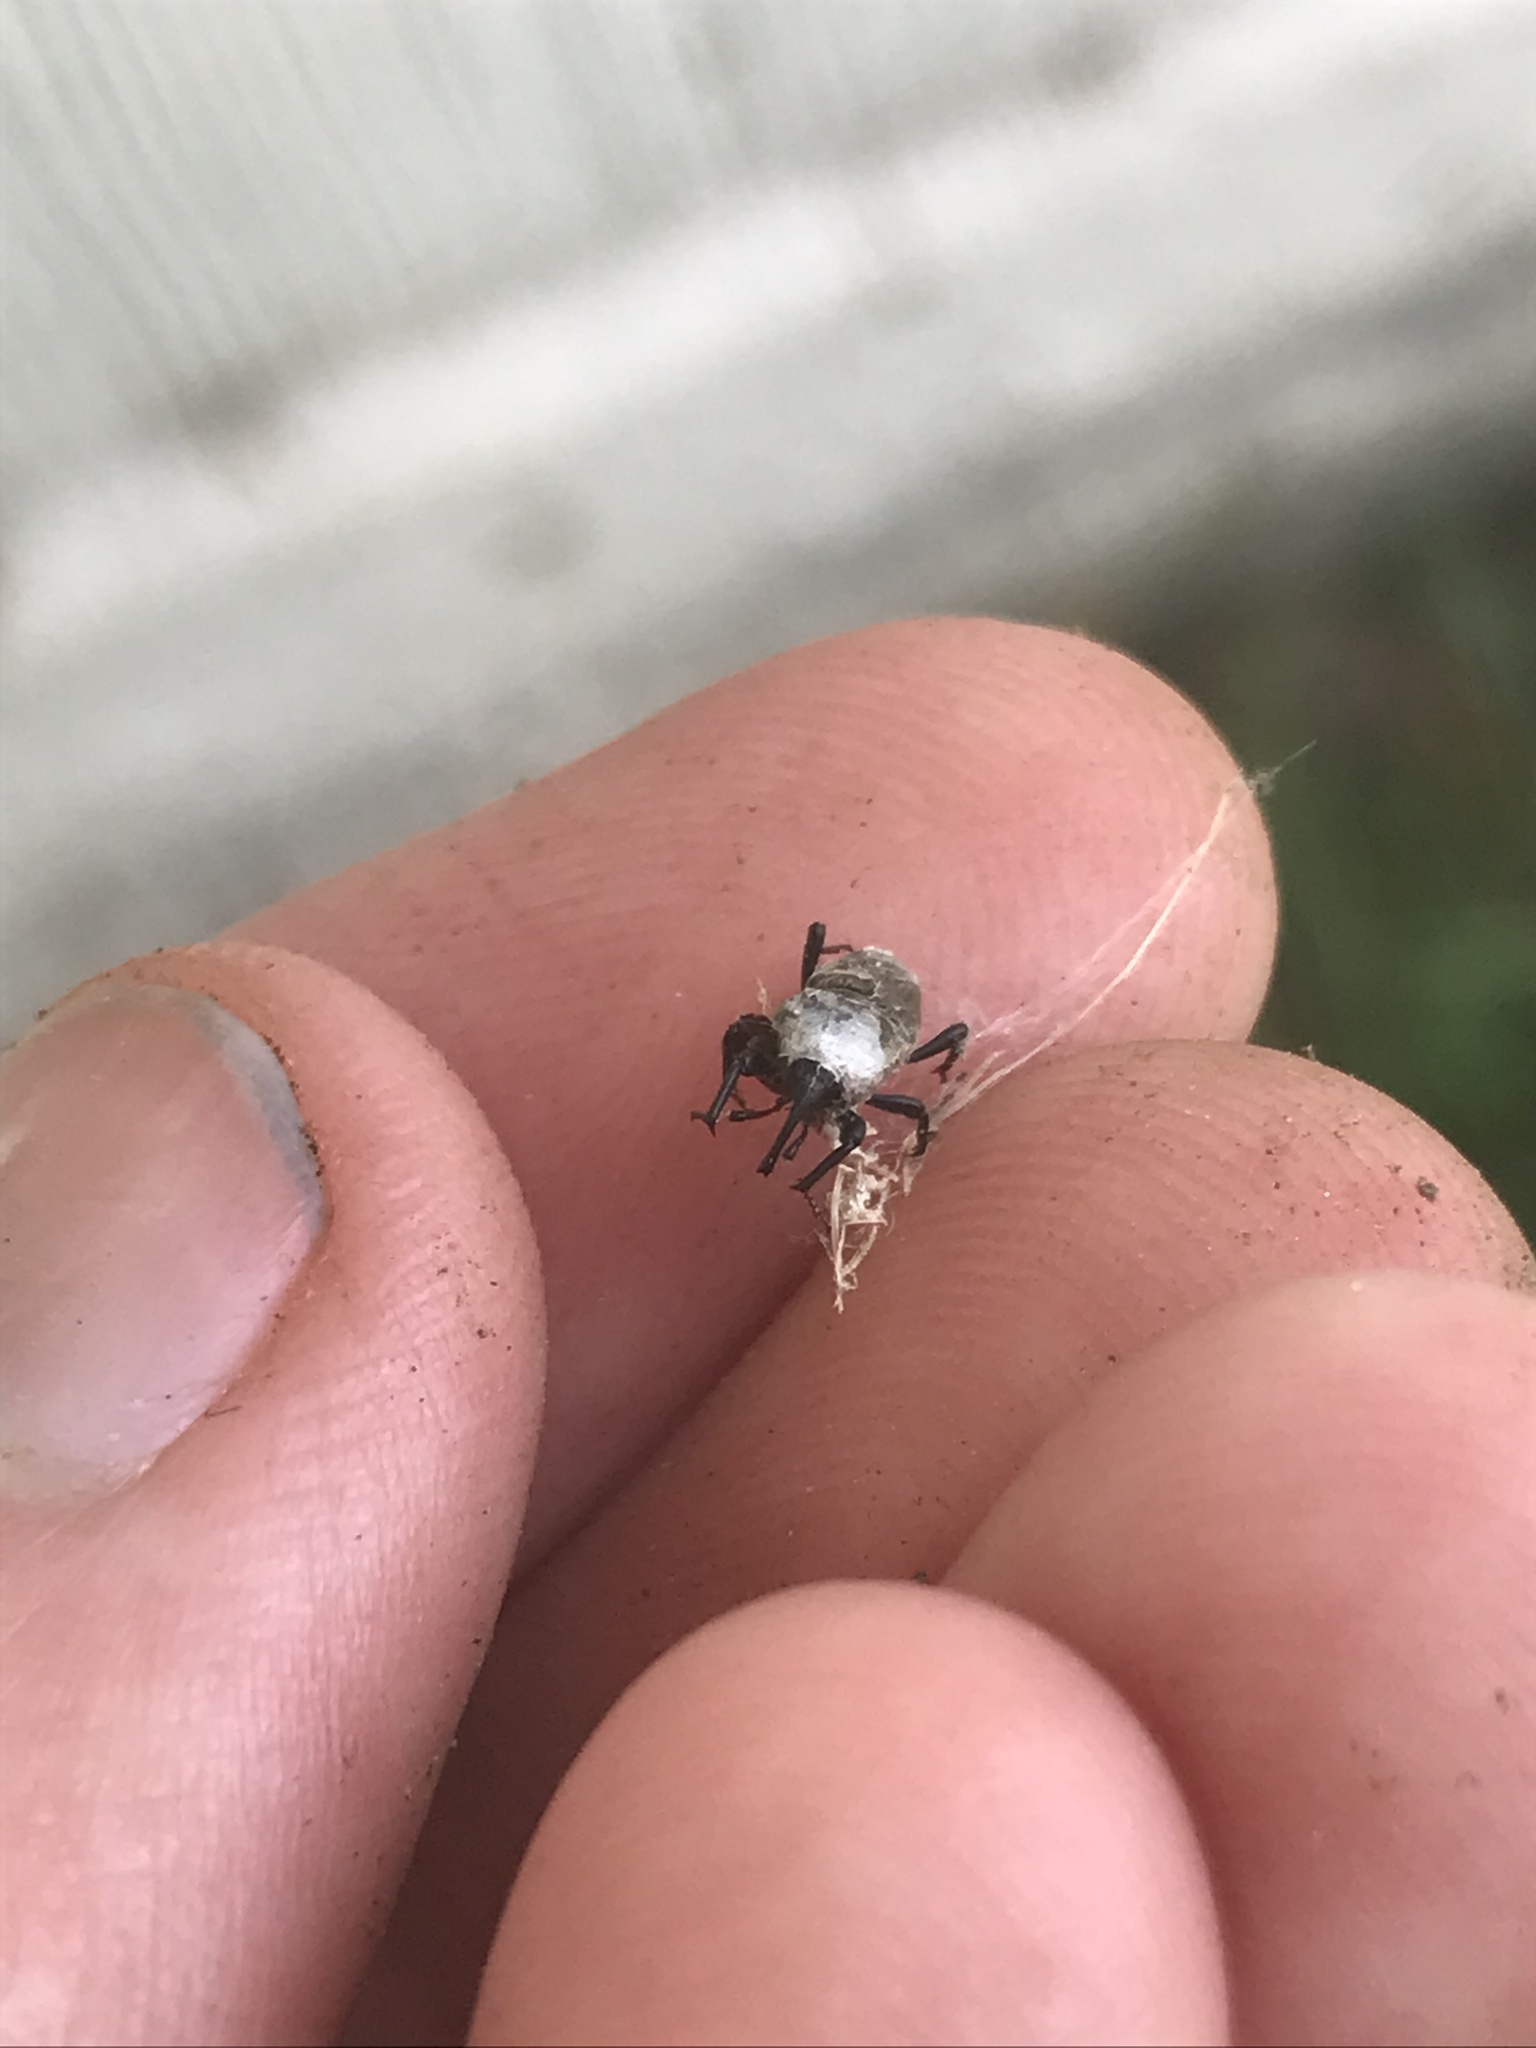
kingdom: Animalia
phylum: Arthropoda
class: Insecta
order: Coleoptera
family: Dryophthoridae
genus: Sphenophorus
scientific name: Sphenophorus interstitialis
